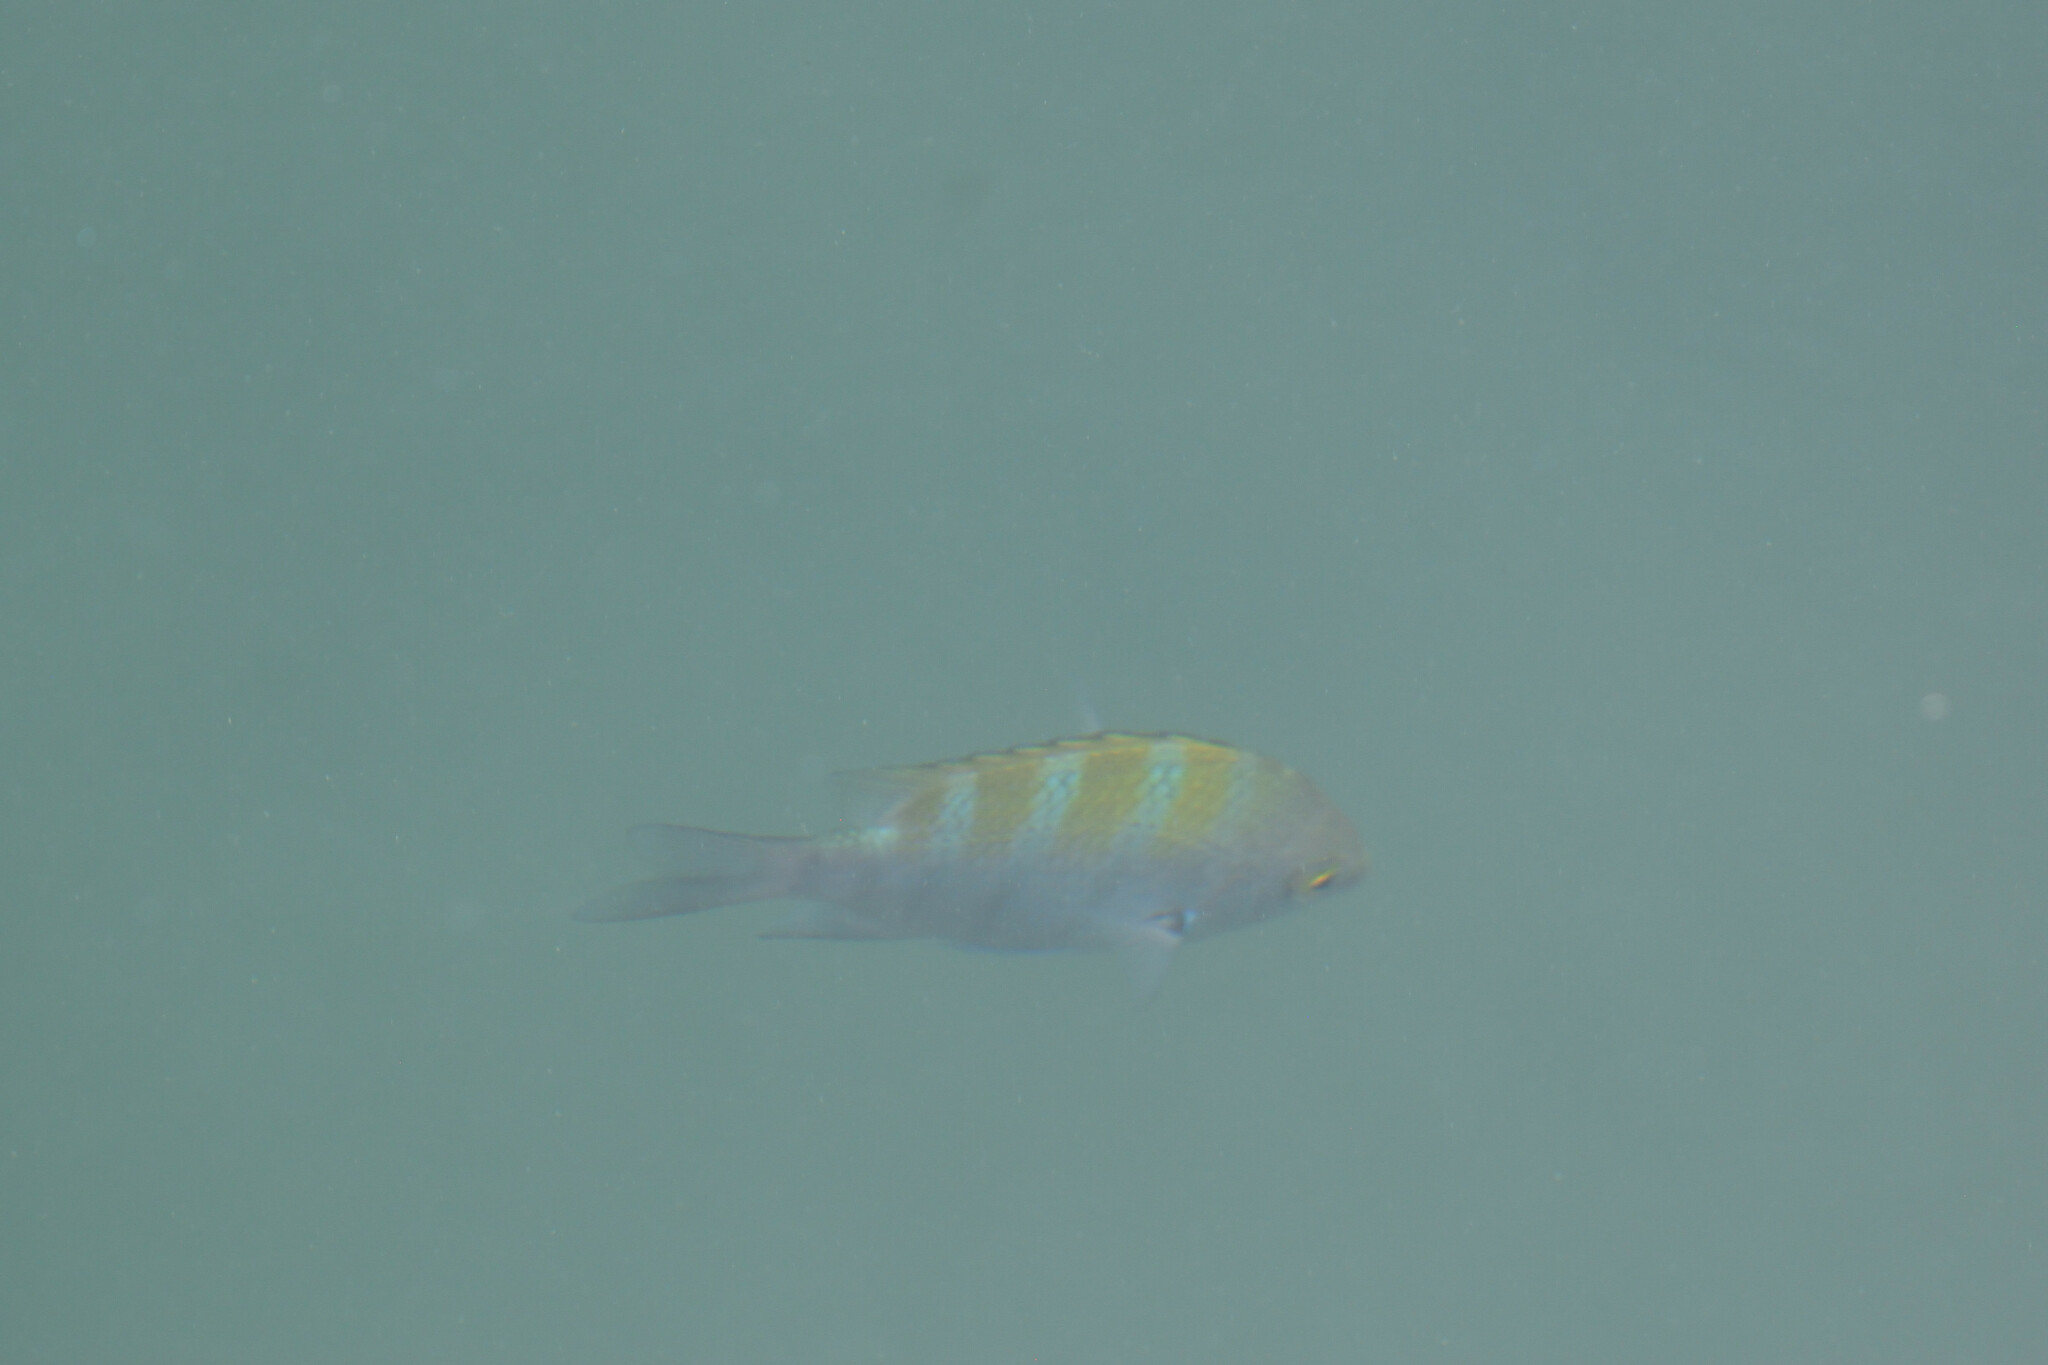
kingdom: Animalia
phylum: Chordata
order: Perciformes
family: Pomacentridae
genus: Abudefduf
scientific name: Abudefduf troschelii
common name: Panamic sergeant major
